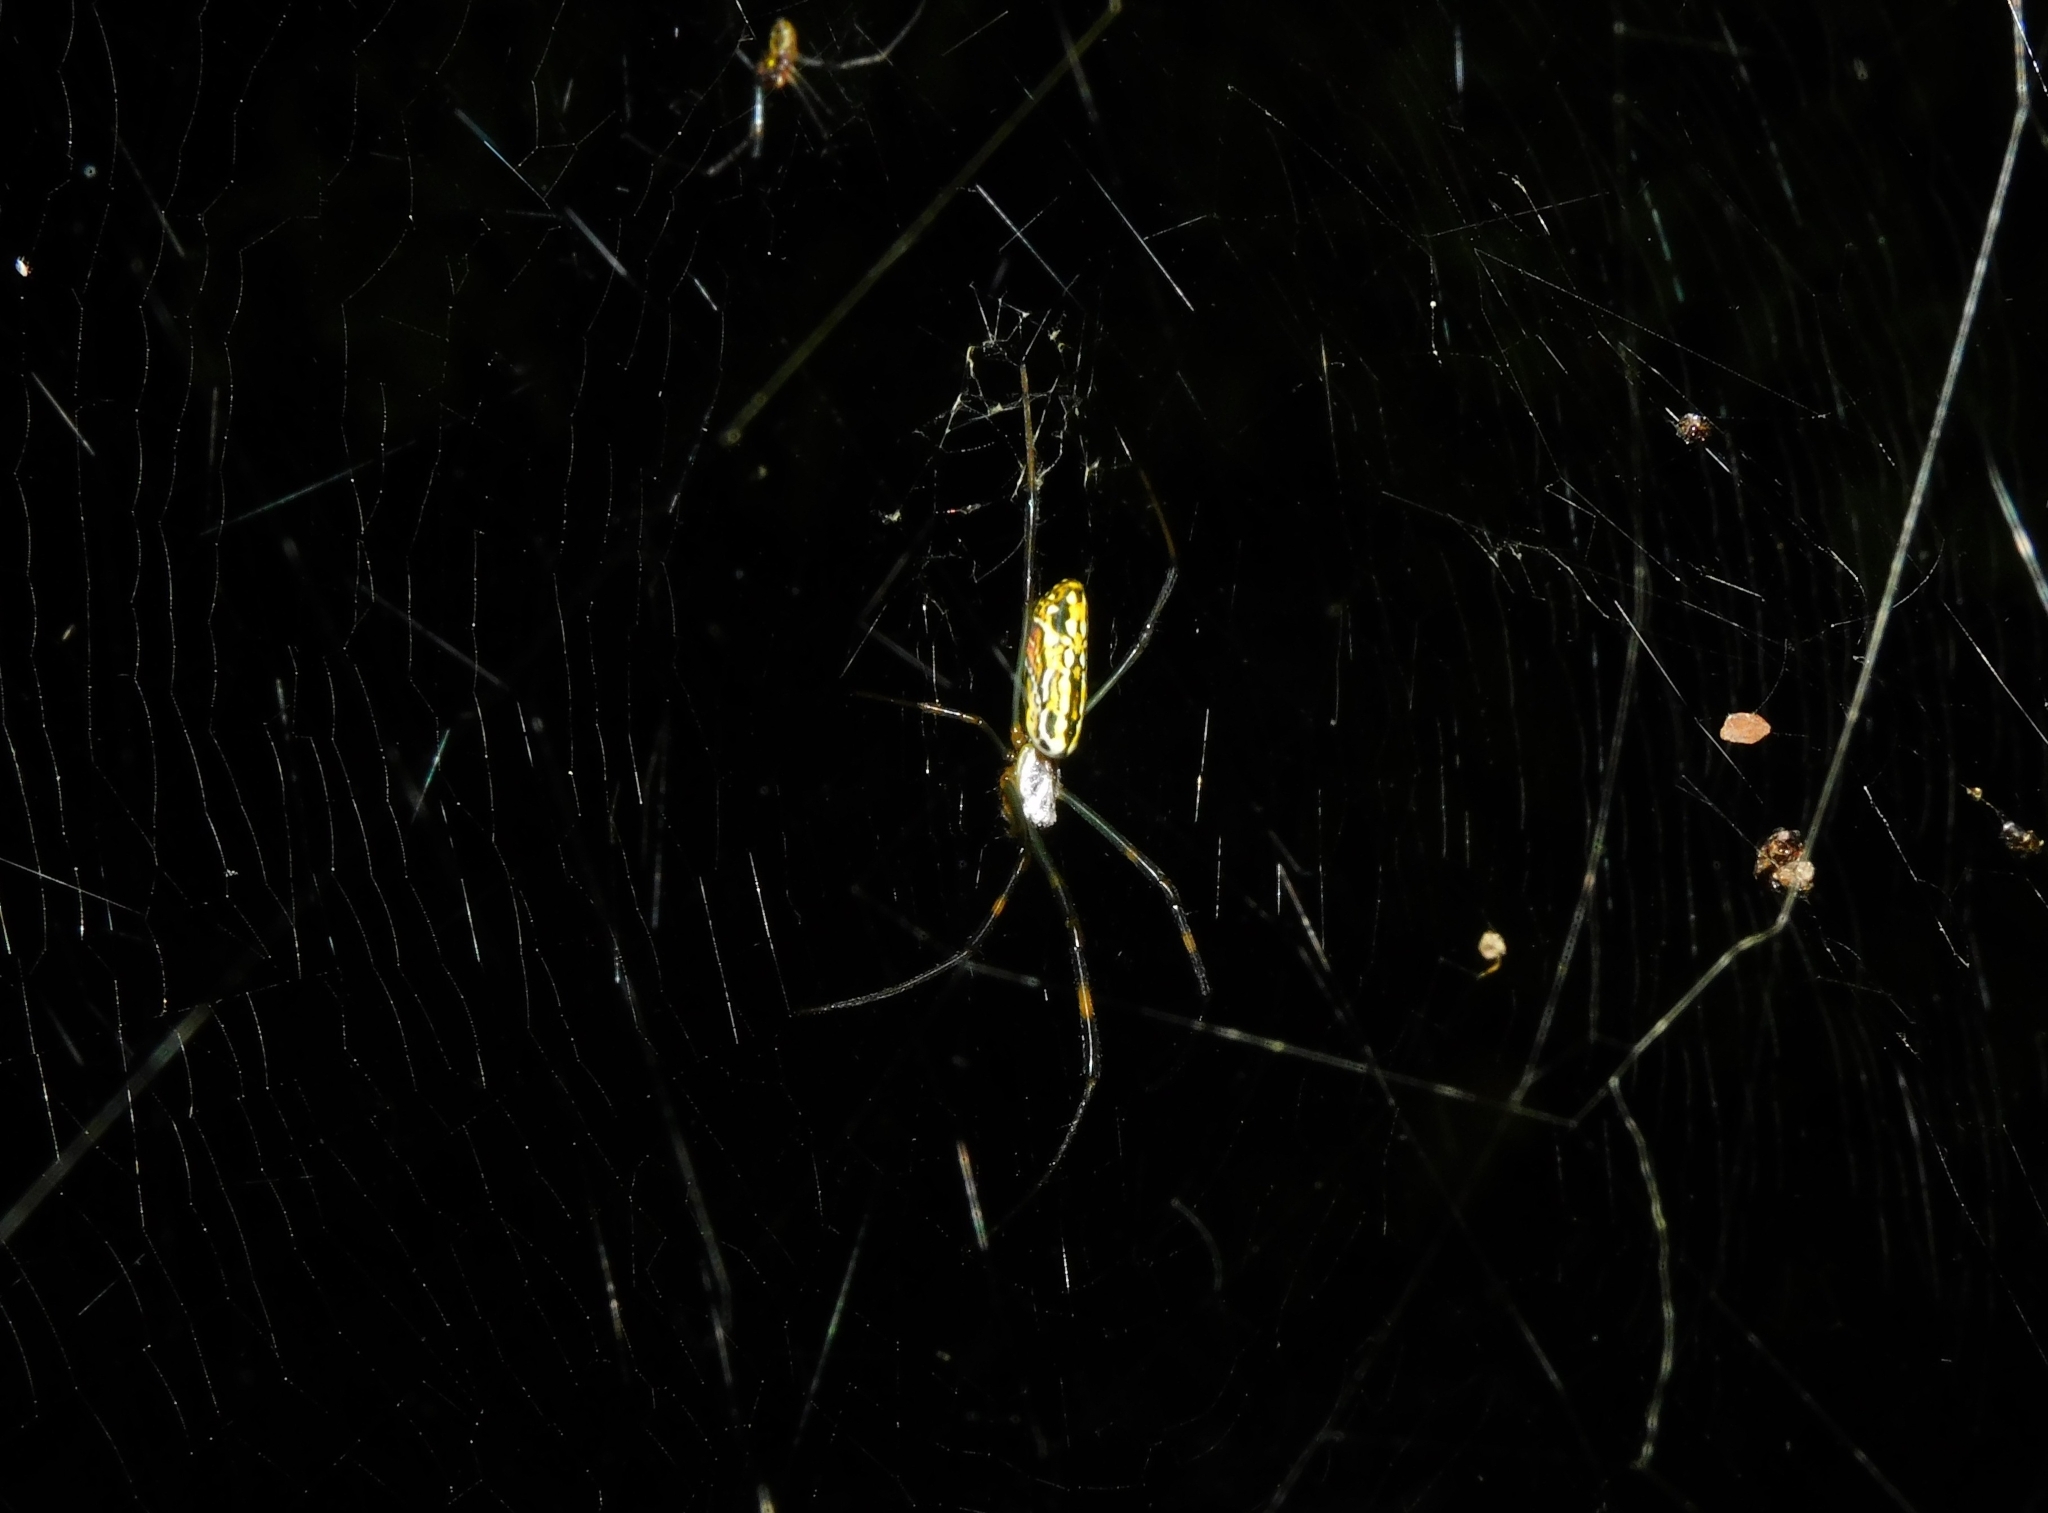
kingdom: Animalia
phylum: Arthropoda
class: Arachnida
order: Araneae
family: Araneidae
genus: Trichonephila
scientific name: Trichonephila clavata
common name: Jorō spider
